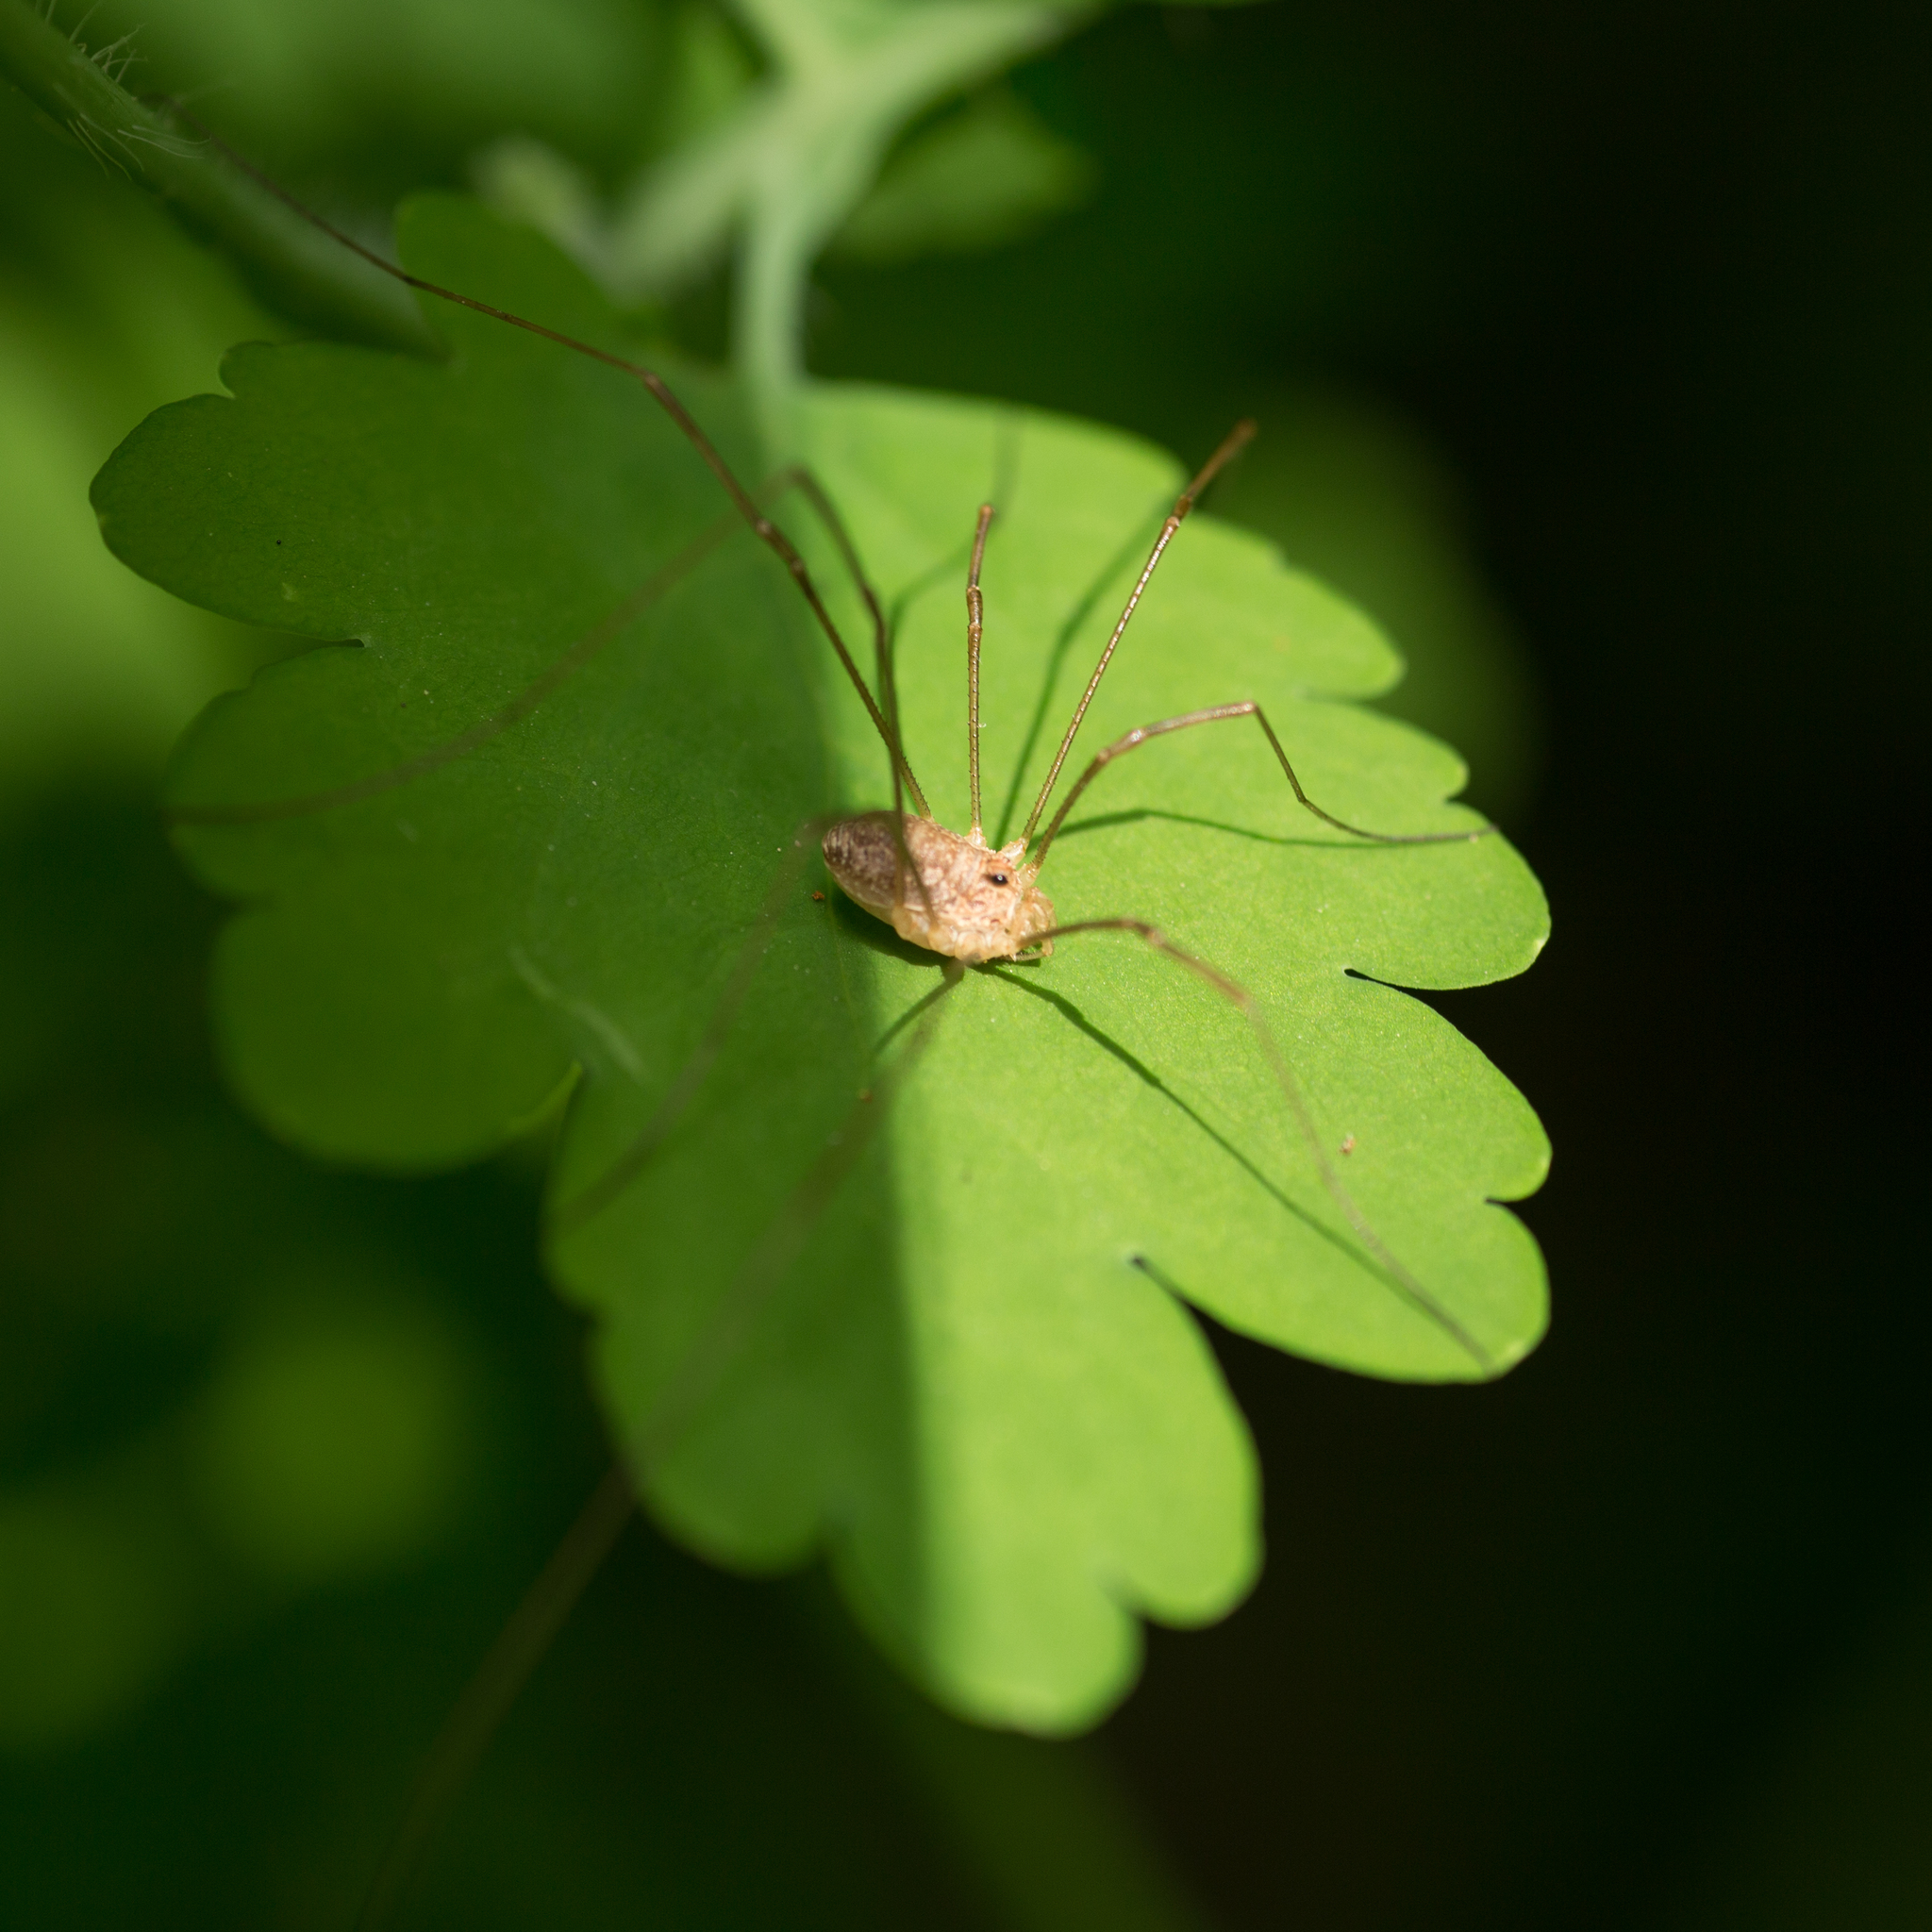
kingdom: Animalia
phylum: Arthropoda
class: Arachnida
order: Opiliones
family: Phalangiidae
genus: Rilaena
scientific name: Rilaena triangularis
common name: Spring harvestman
